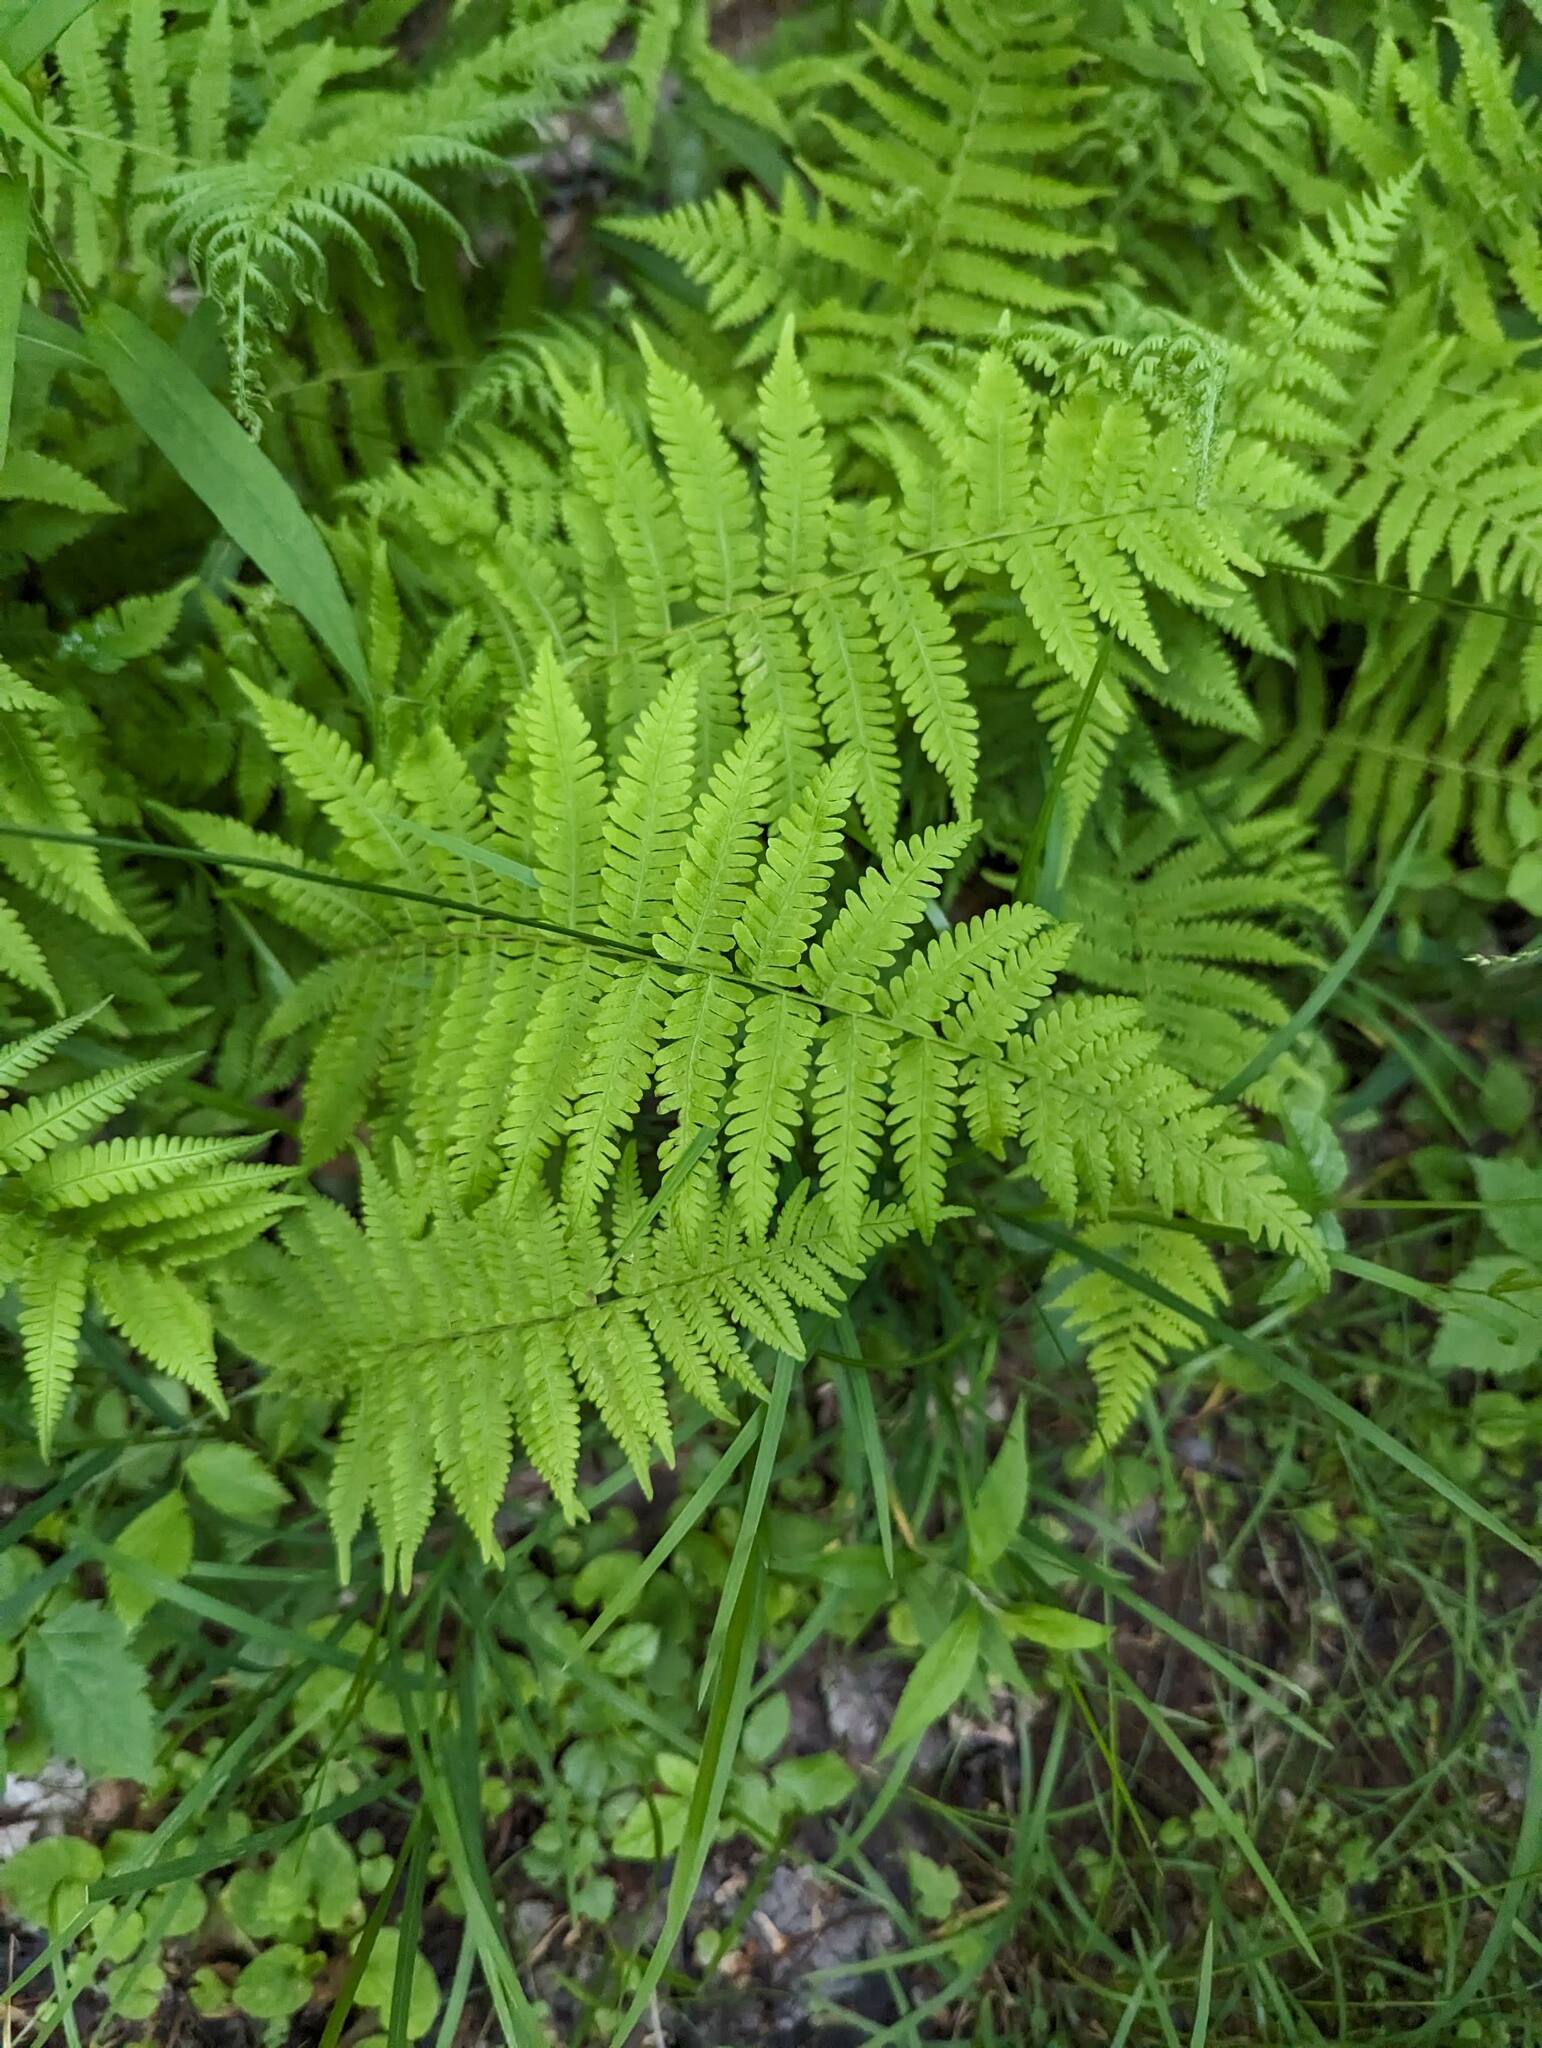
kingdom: Plantae
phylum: Tracheophyta
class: Polypodiopsida
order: Polypodiales
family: Thelypteridaceae
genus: Amauropelta
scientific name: Amauropelta noveboracensis
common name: New york fern
